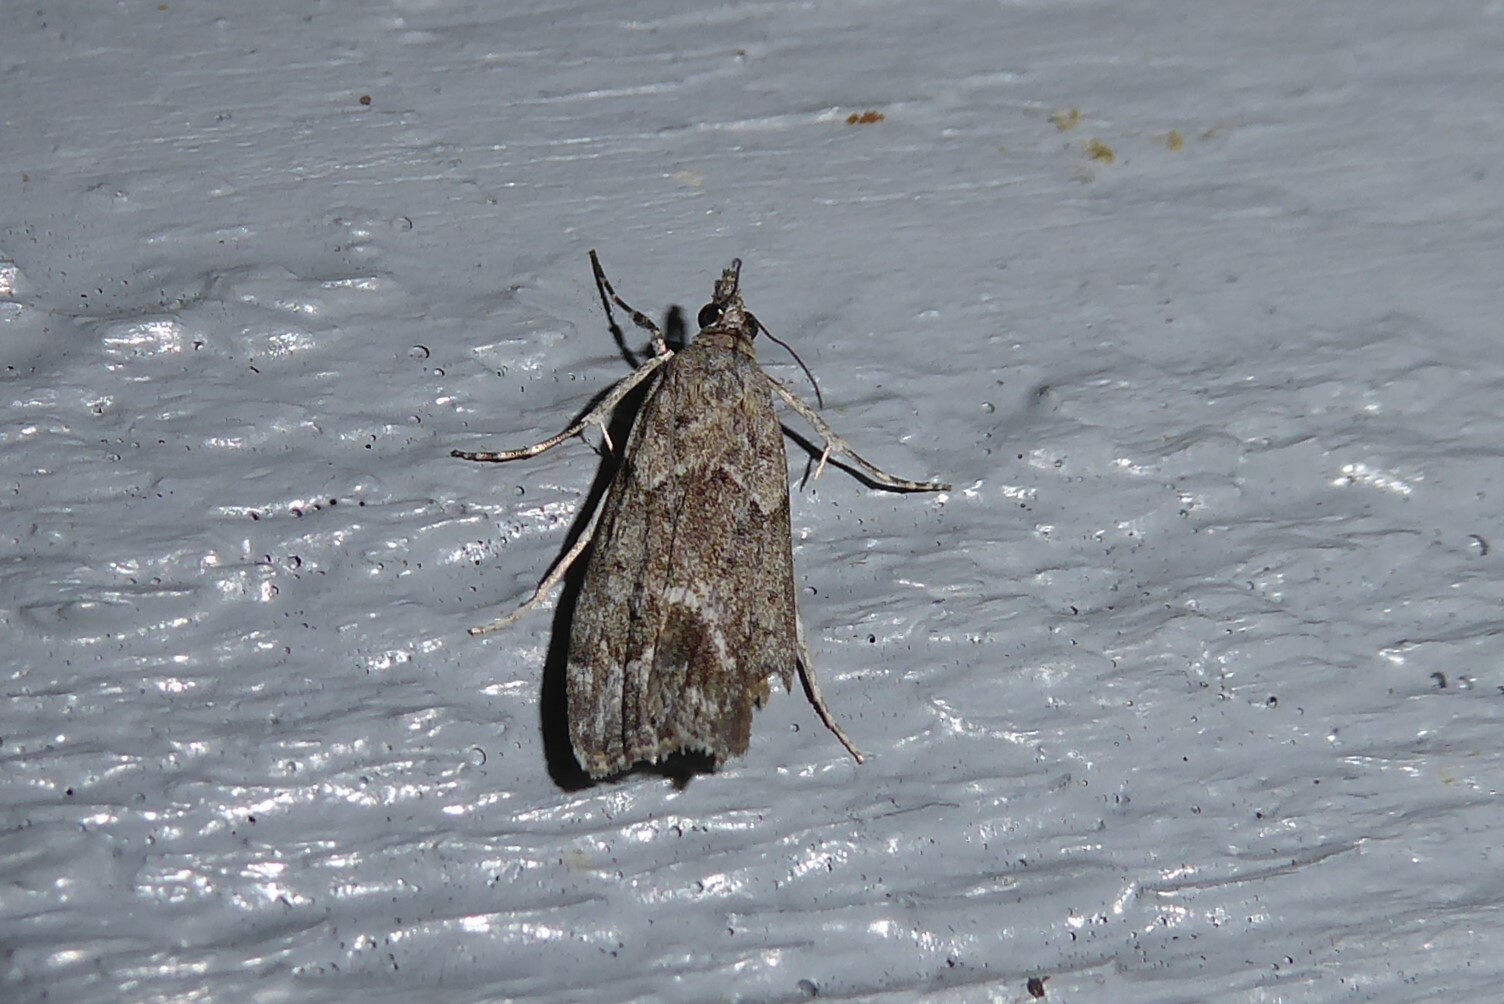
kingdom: Animalia
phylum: Arthropoda
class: Insecta
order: Lepidoptera
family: Crambidae
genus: Eudonia
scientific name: Eudonia rakaiensis
